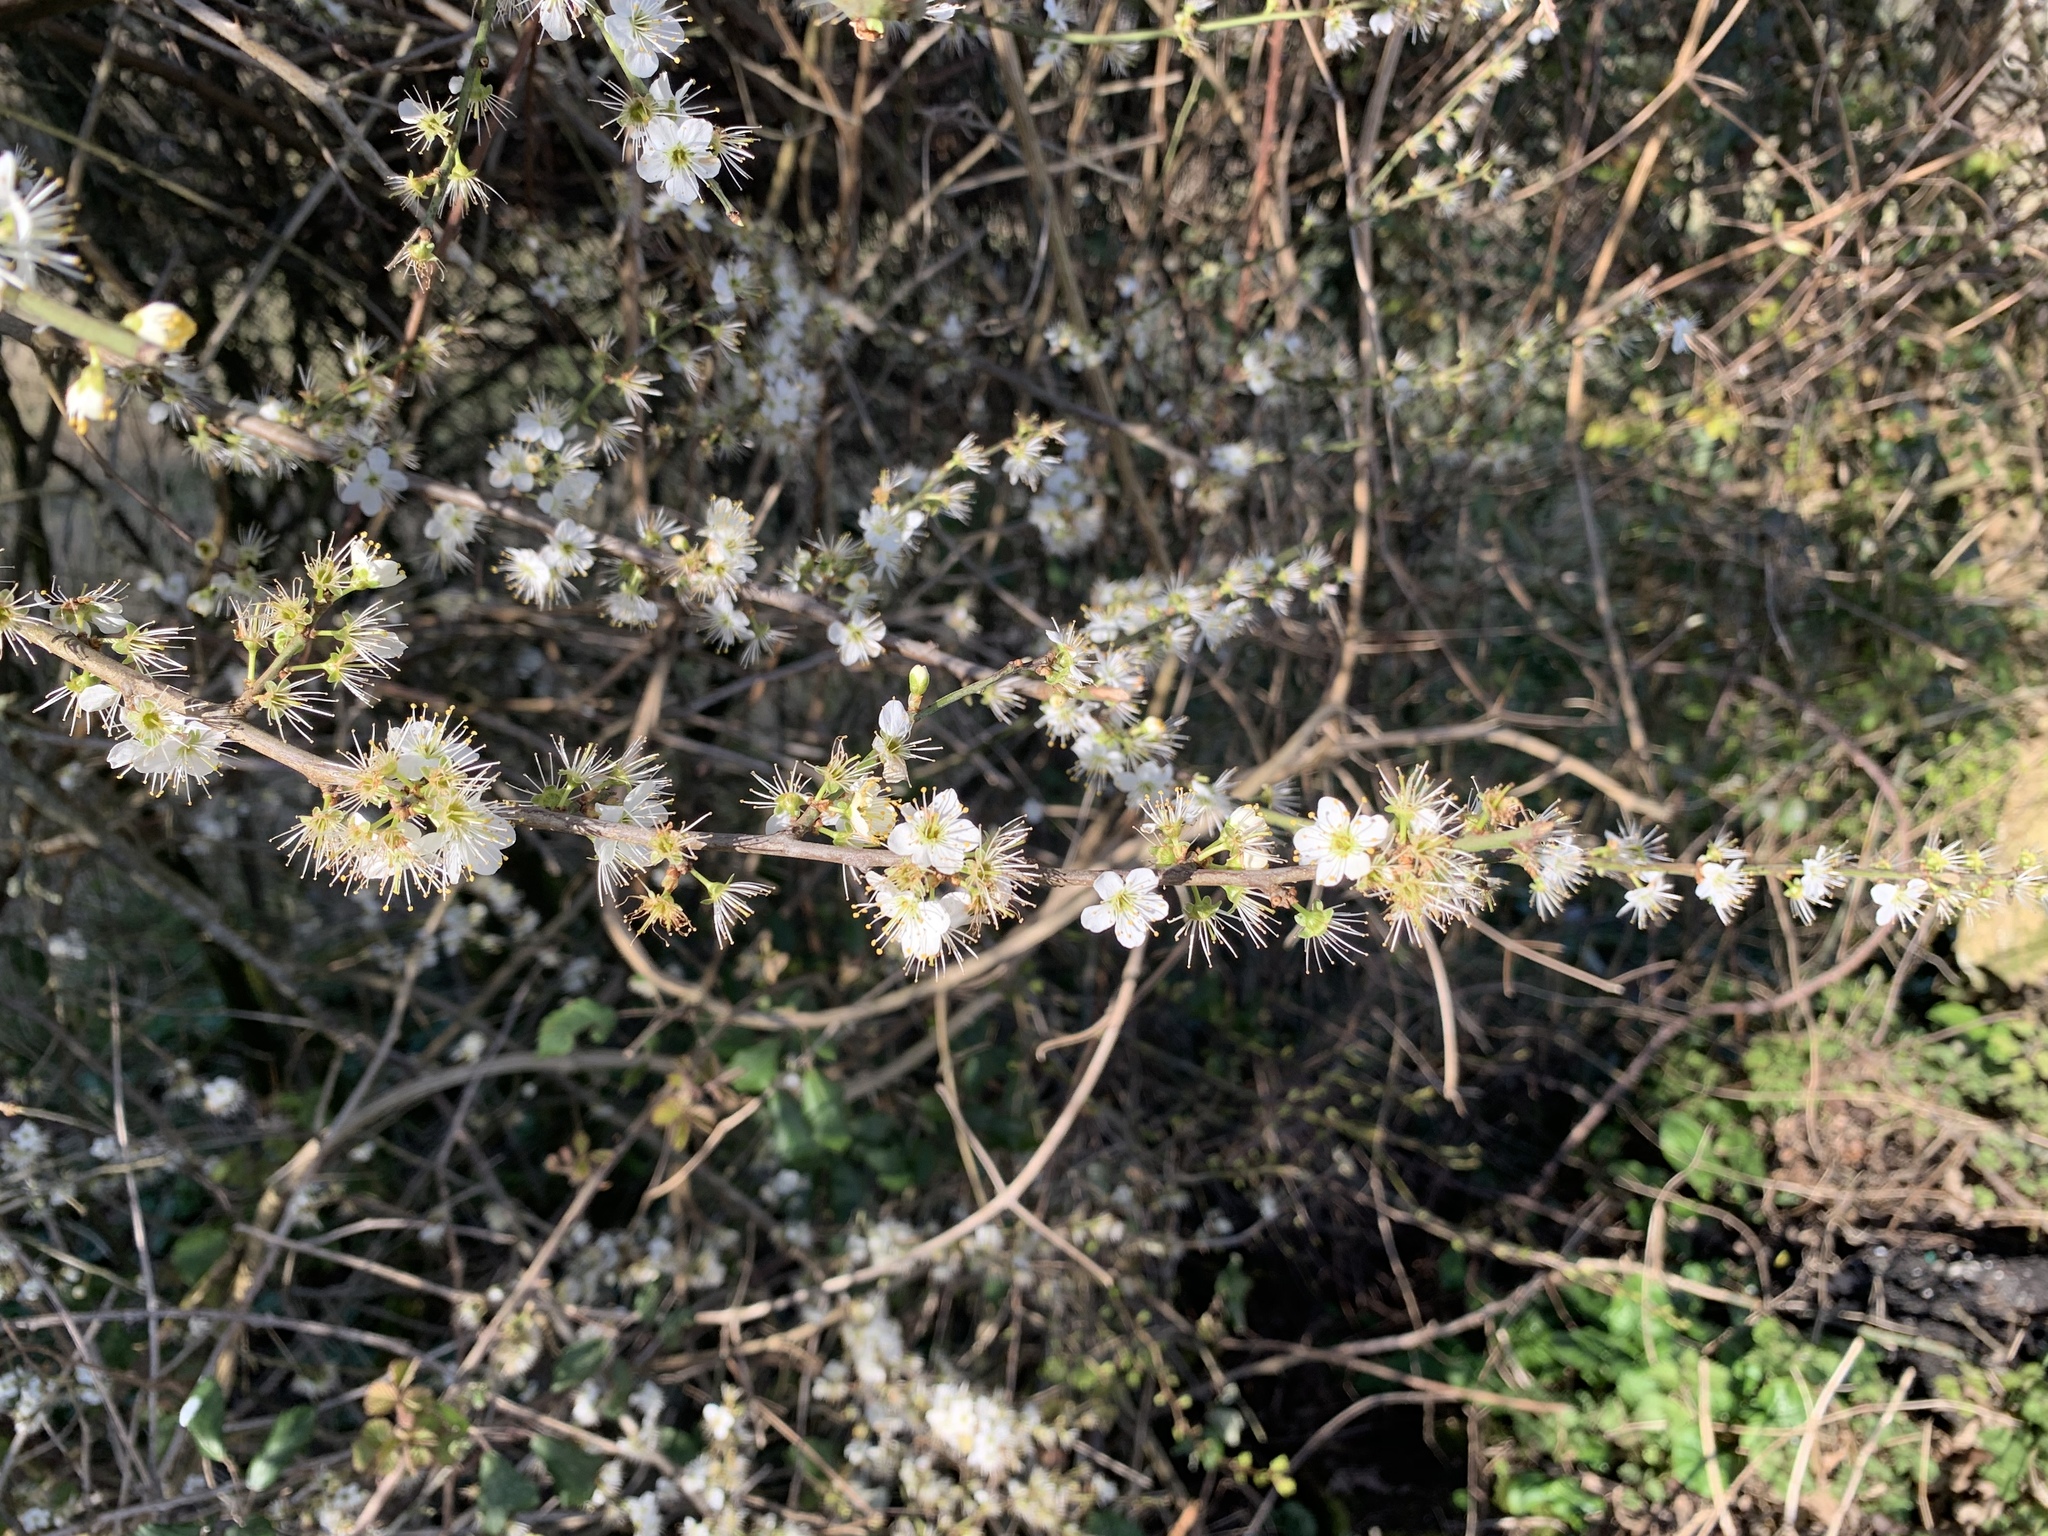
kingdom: Plantae
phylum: Tracheophyta
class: Magnoliopsida
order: Rosales
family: Rosaceae
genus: Prunus
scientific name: Prunus spinosa
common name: Blackthorn
